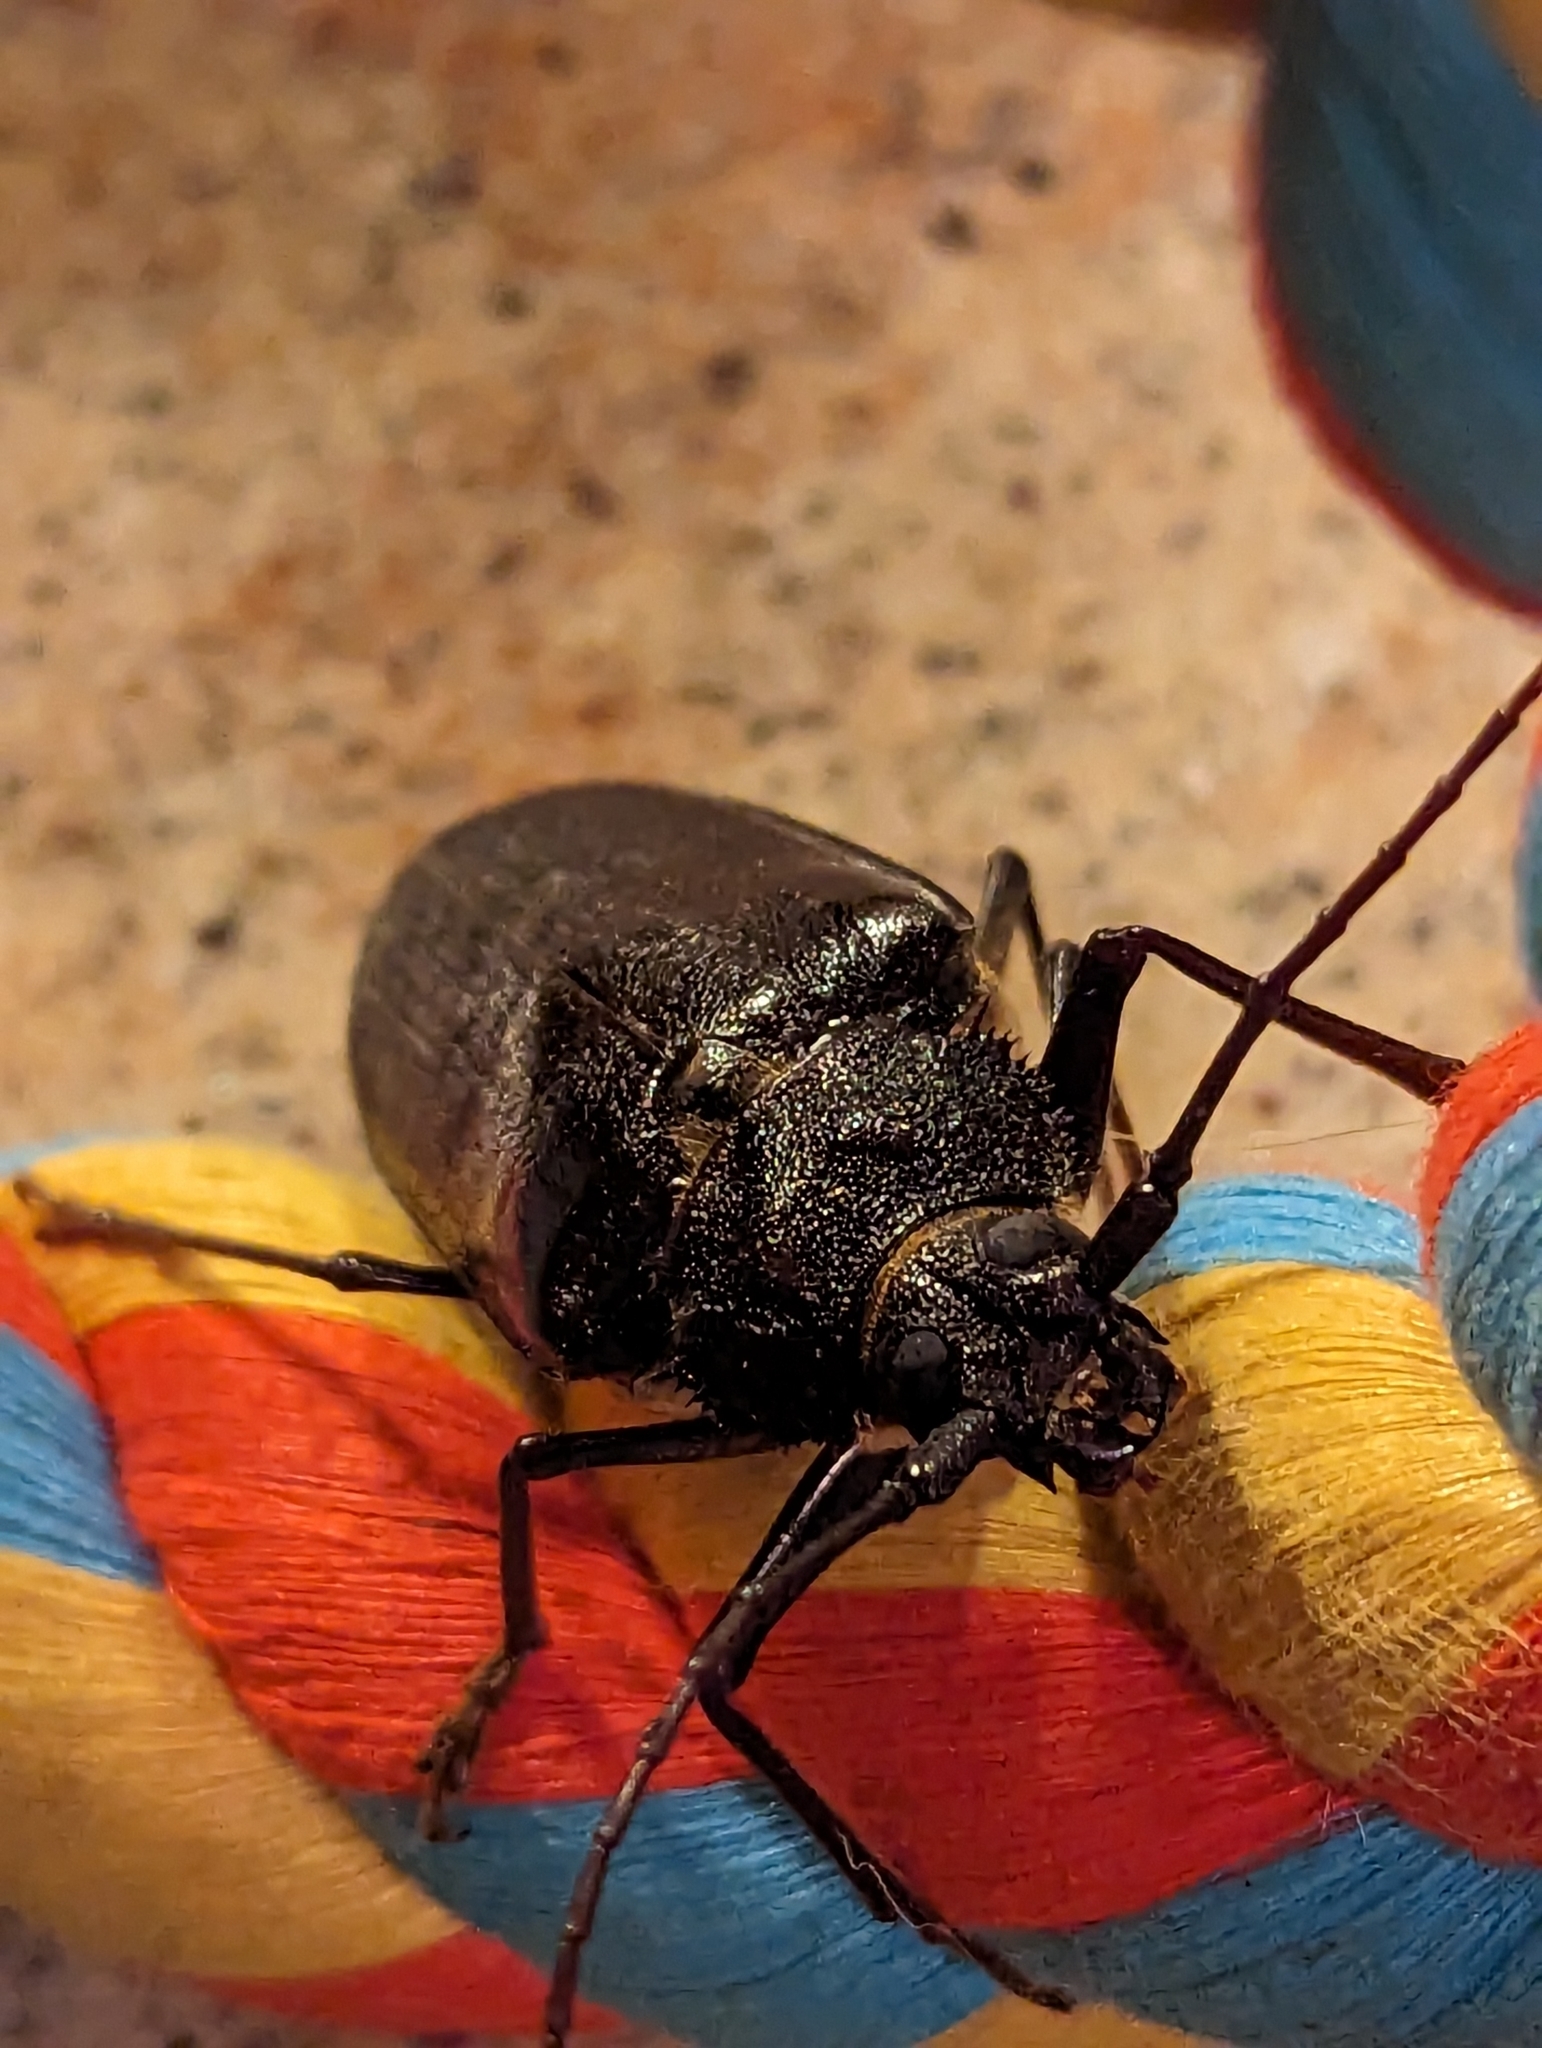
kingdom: Animalia
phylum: Arthropoda
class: Insecta
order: Coleoptera
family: Cerambycidae
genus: Trichocnemis
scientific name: Trichocnemis spiculatus
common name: Long-horned beetle
